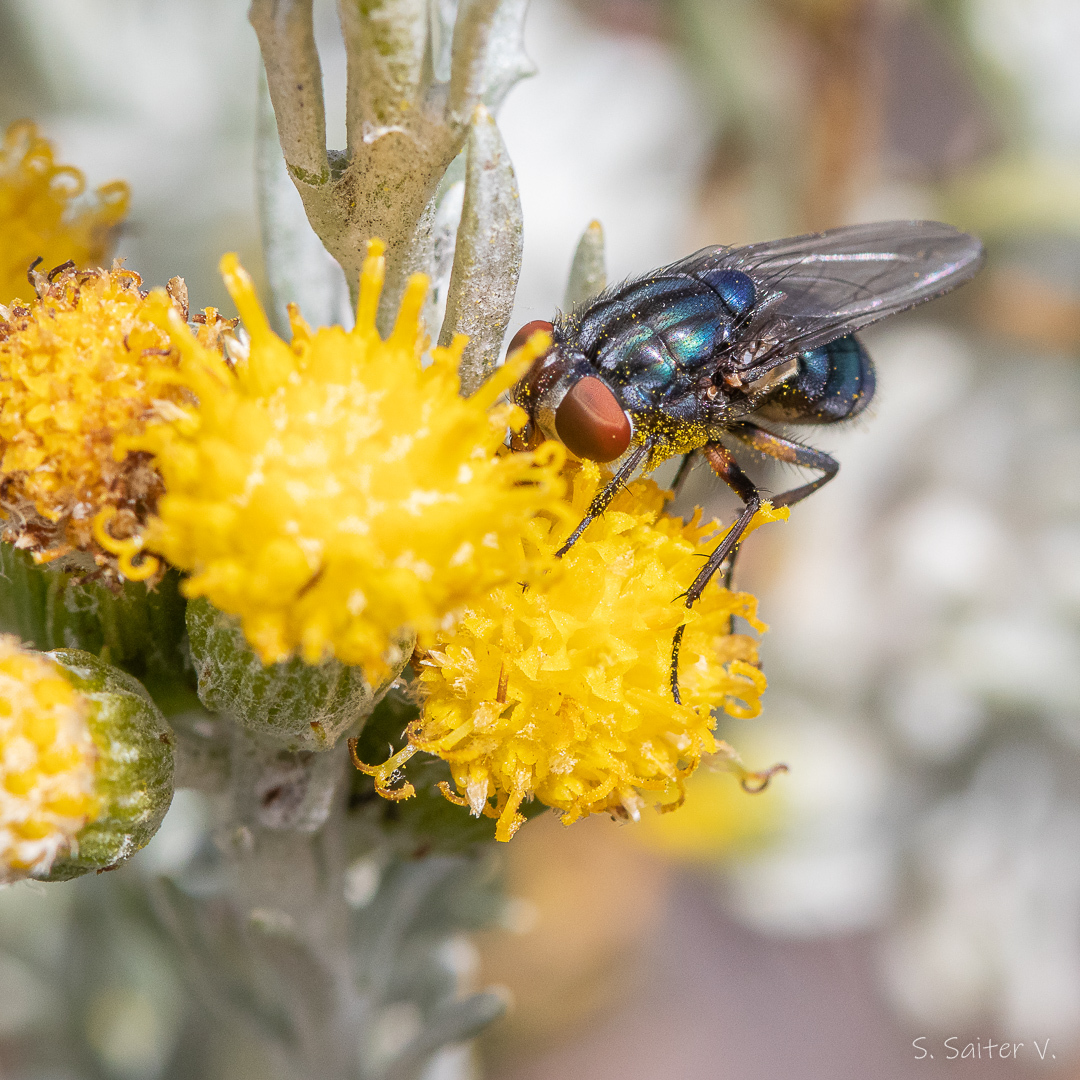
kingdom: Animalia
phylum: Arthropoda
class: Insecta
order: Diptera
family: Calliphoridae
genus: Compsomyiops
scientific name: Compsomyiops fulvicrura
